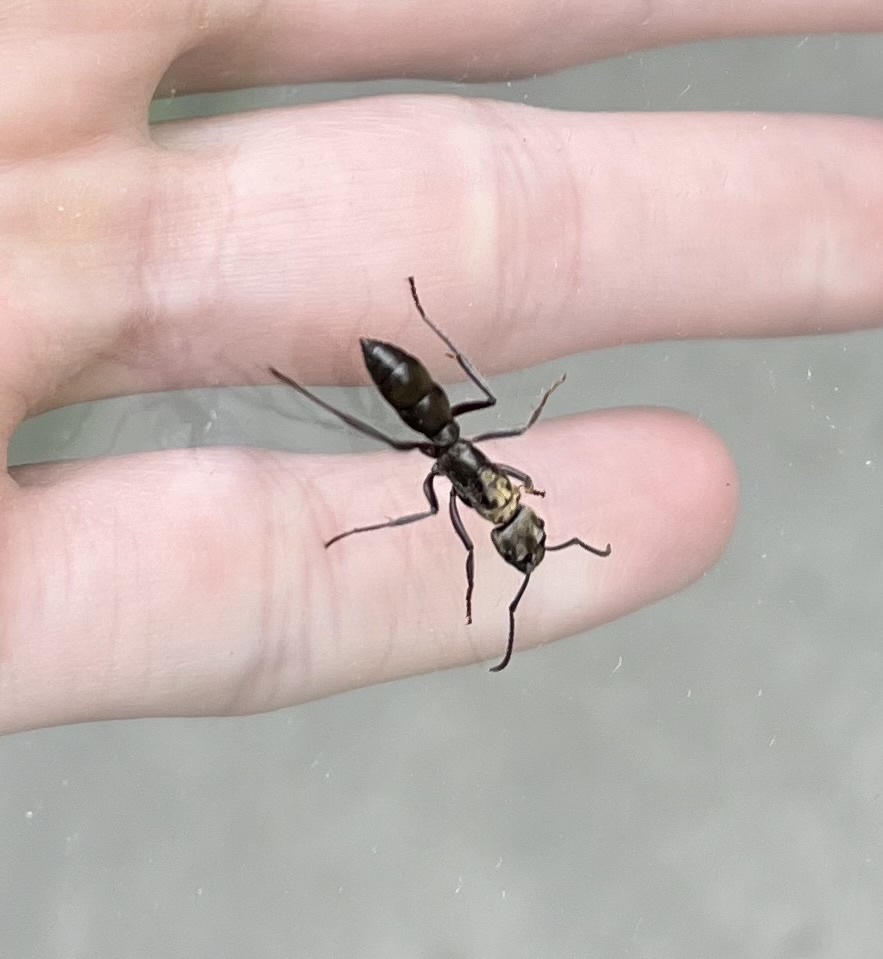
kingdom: Animalia
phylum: Arthropoda
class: Insecta
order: Hymenoptera
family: Formicidae
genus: Pachycondyla
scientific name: Pachycondyla villosa
